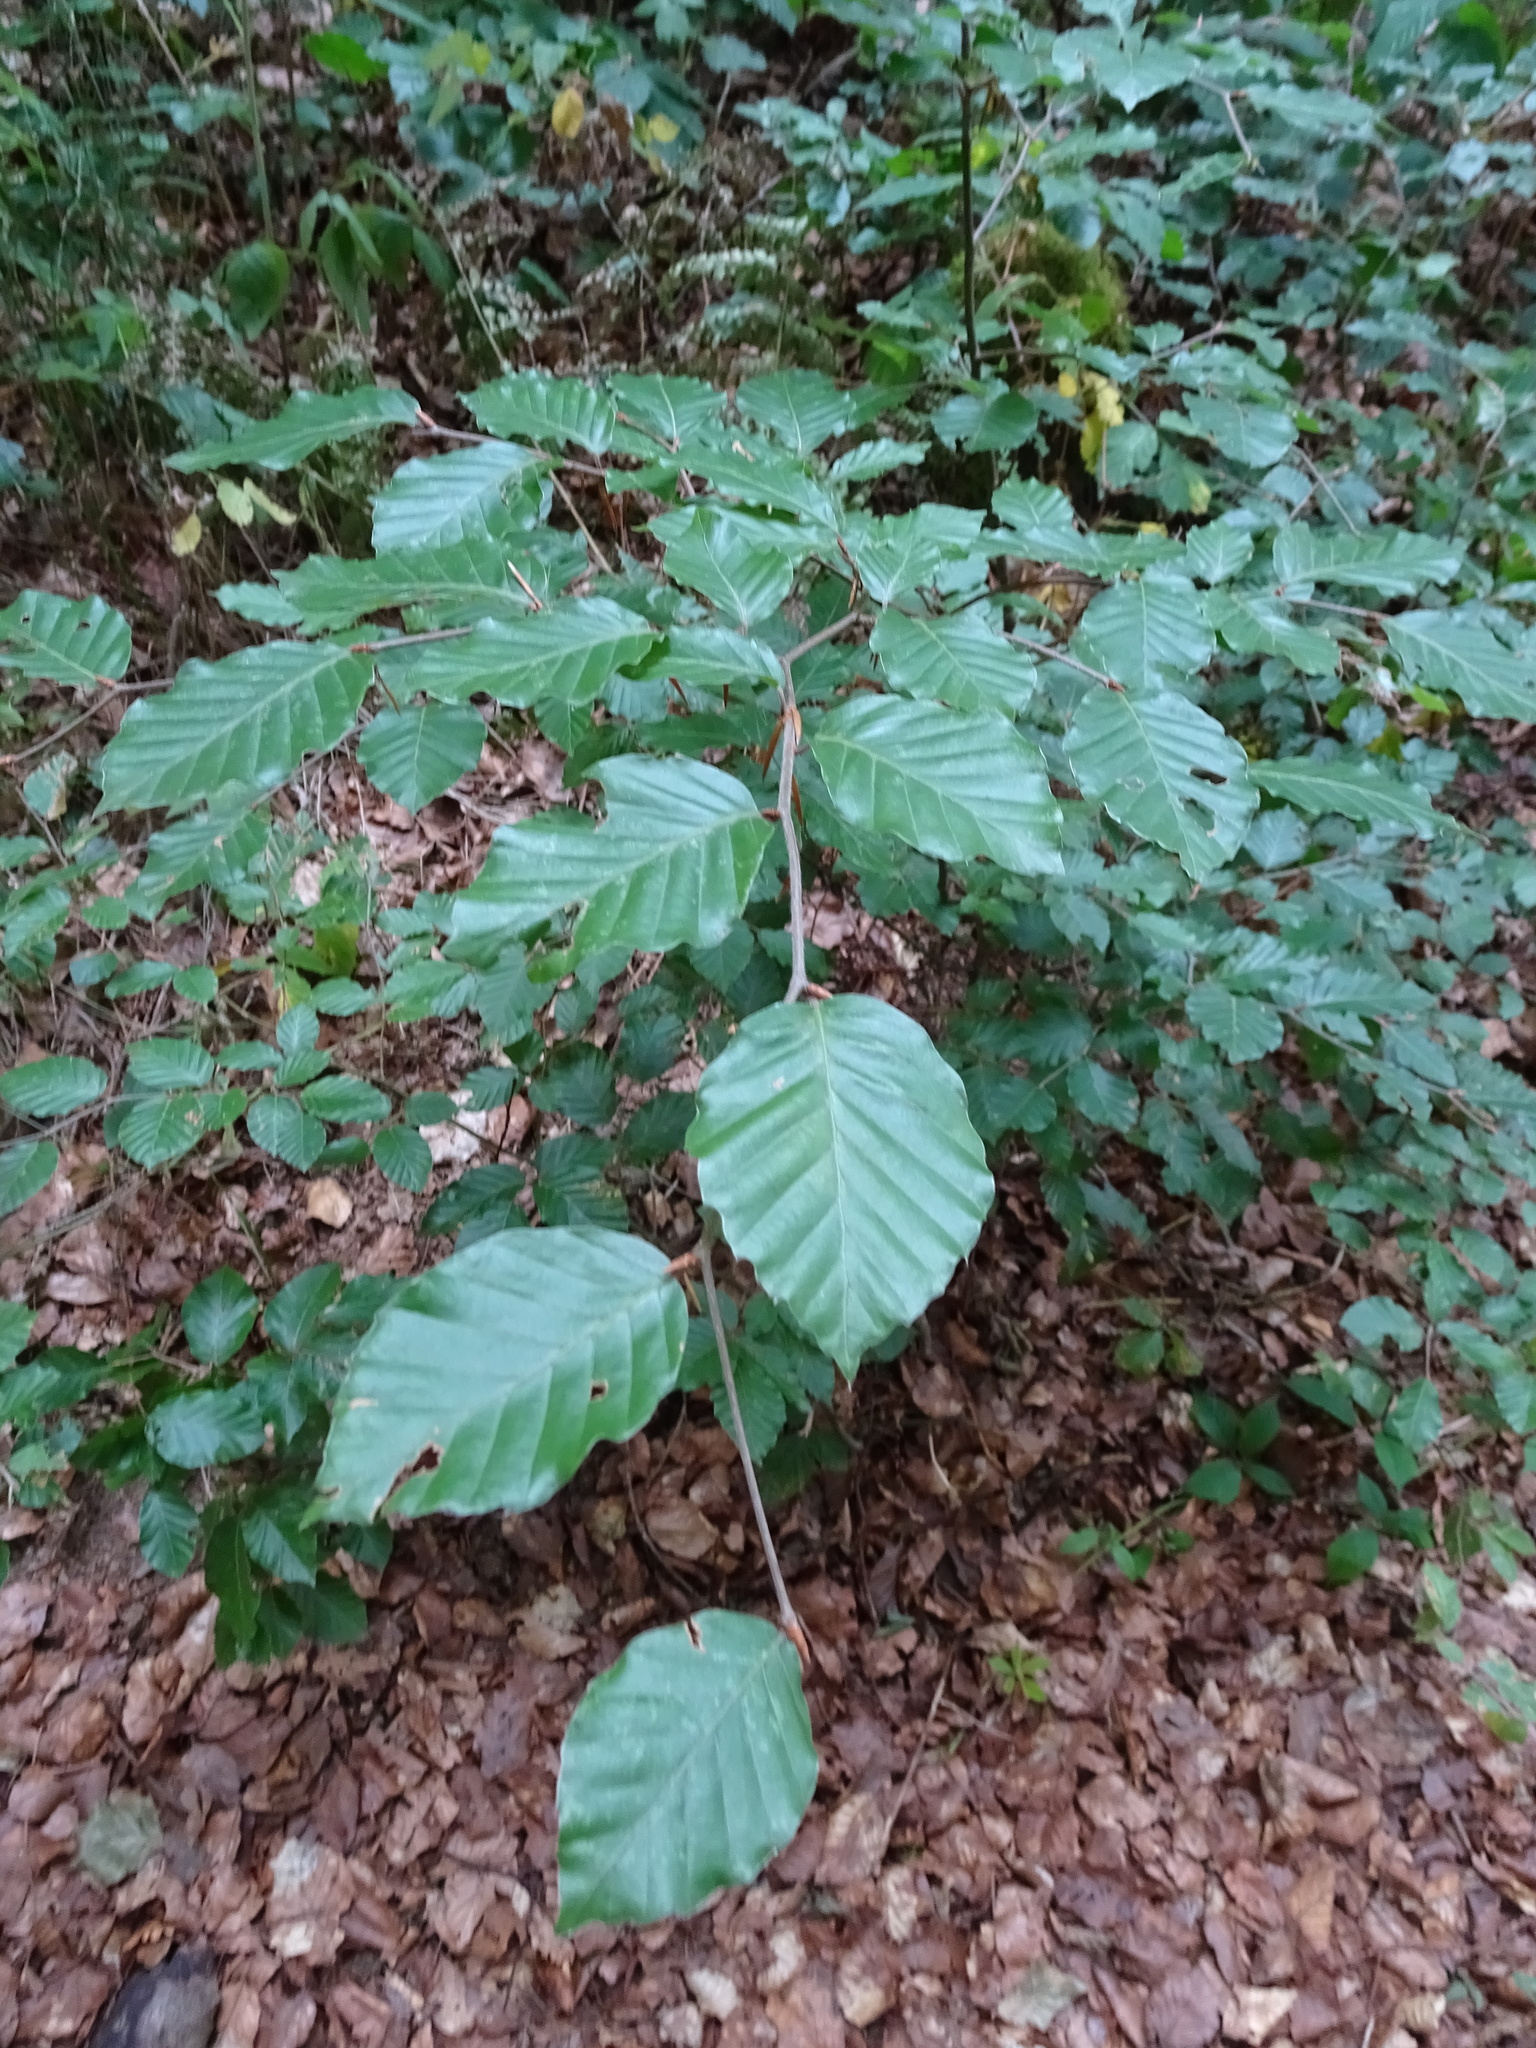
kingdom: Plantae
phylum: Tracheophyta
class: Magnoliopsida
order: Fagales
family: Fagaceae
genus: Fagus
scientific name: Fagus sylvatica
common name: Beech
